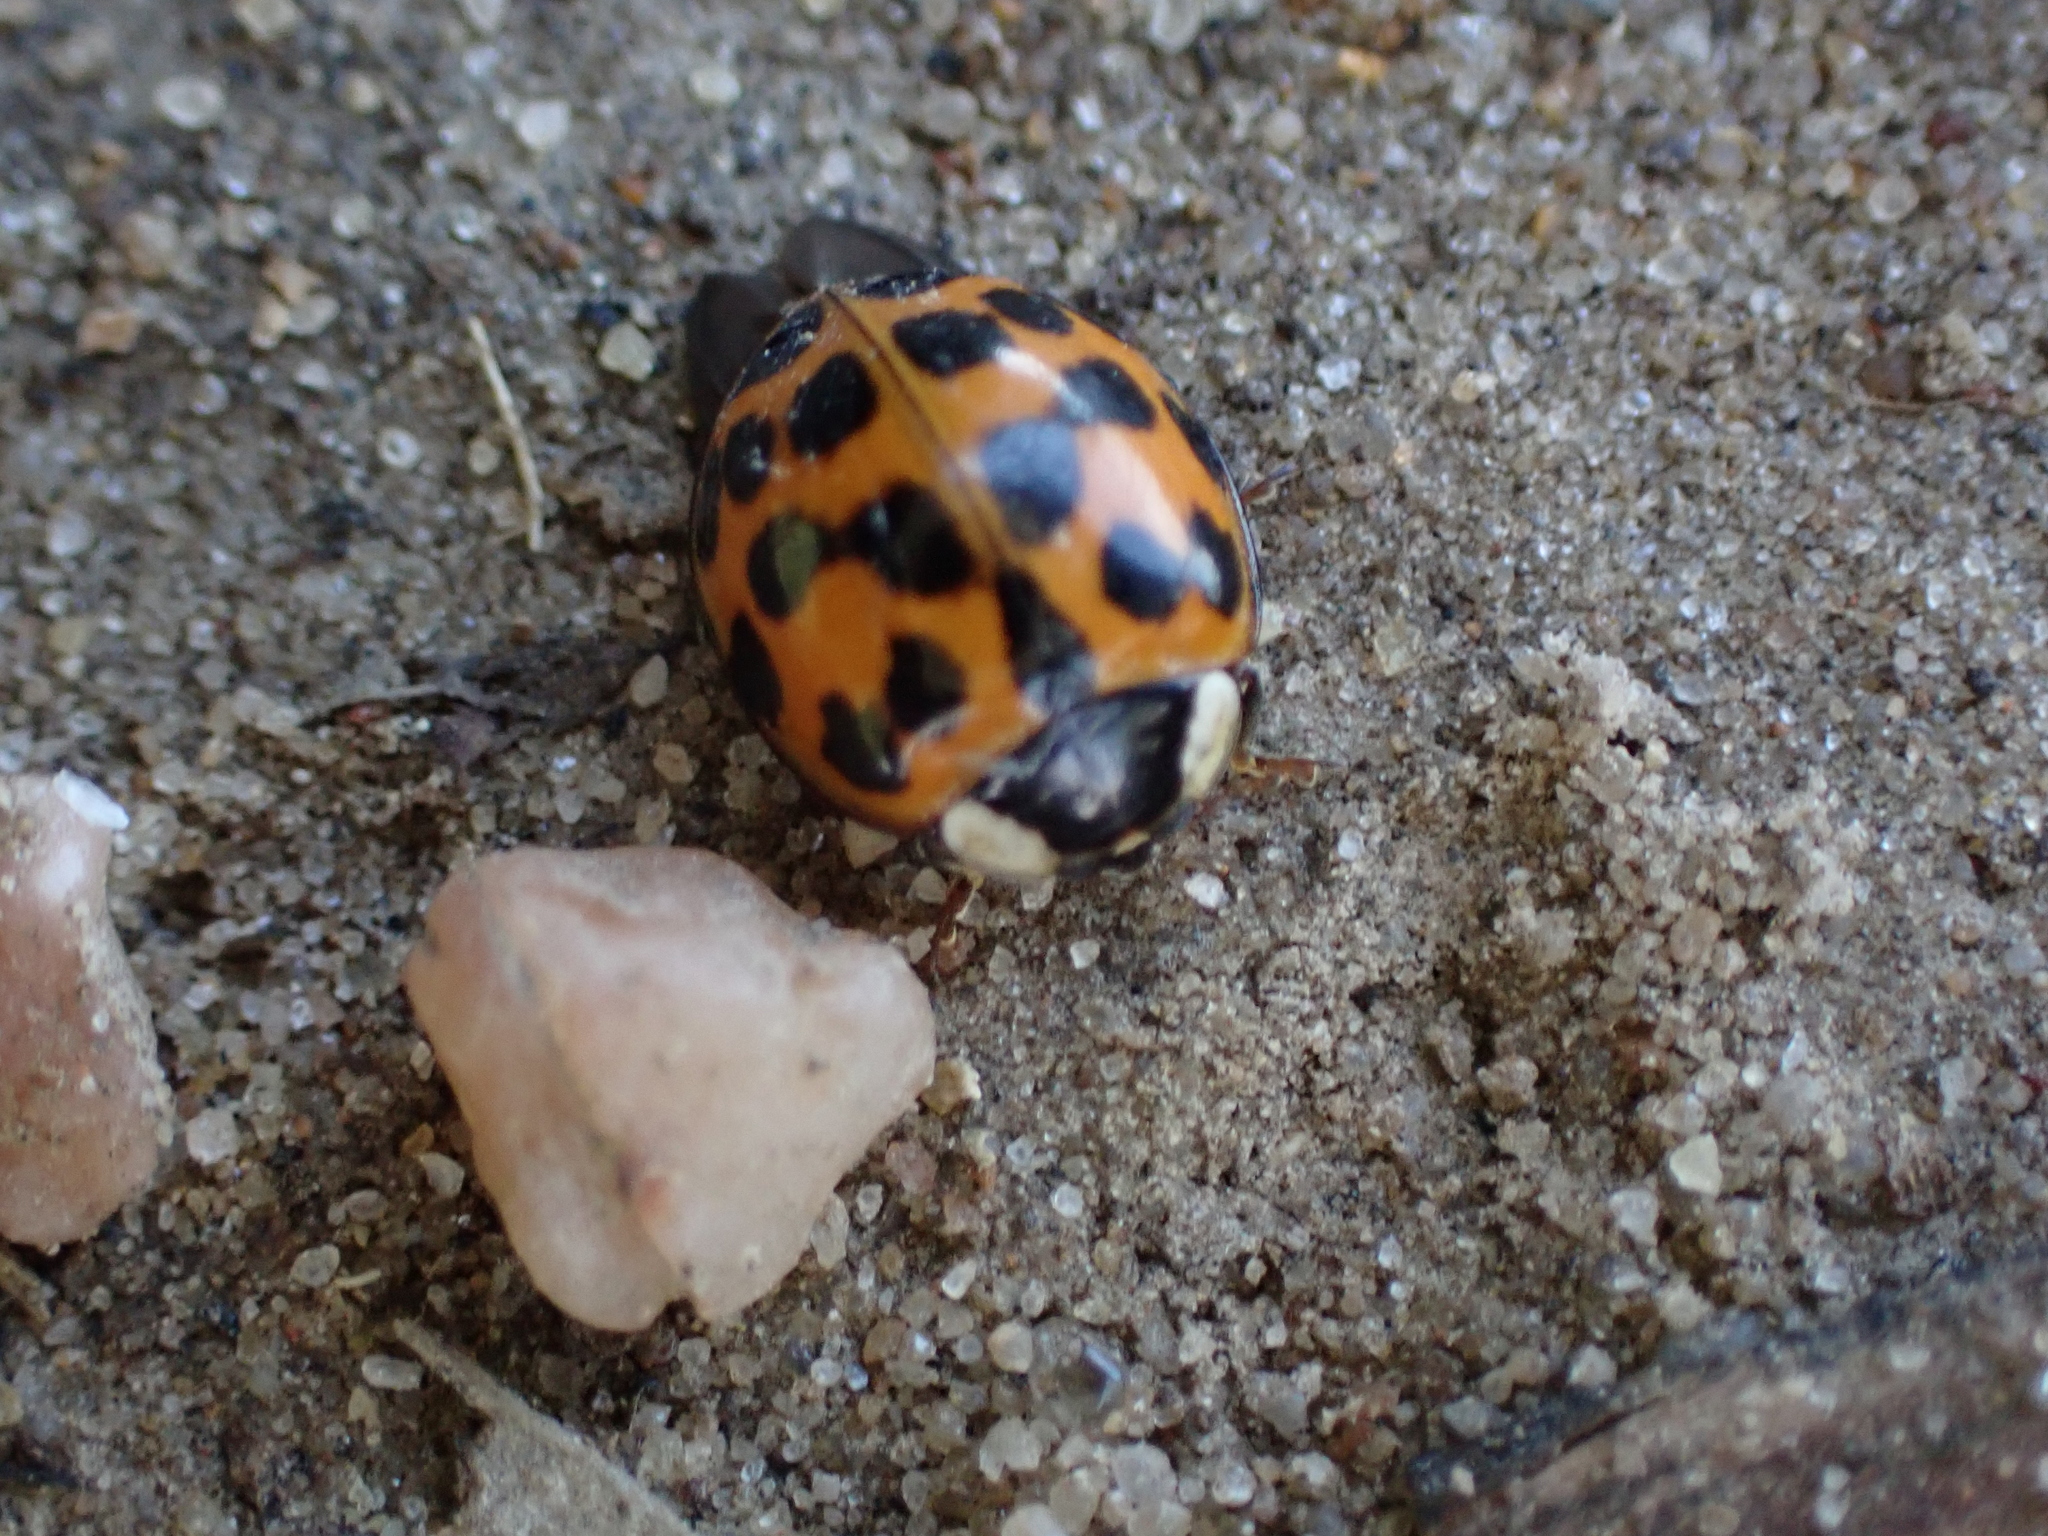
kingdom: Animalia
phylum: Arthropoda
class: Insecta
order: Coleoptera
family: Coccinellidae
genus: Harmonia
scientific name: Harmonia axyridis
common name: Harlequin ladybird
